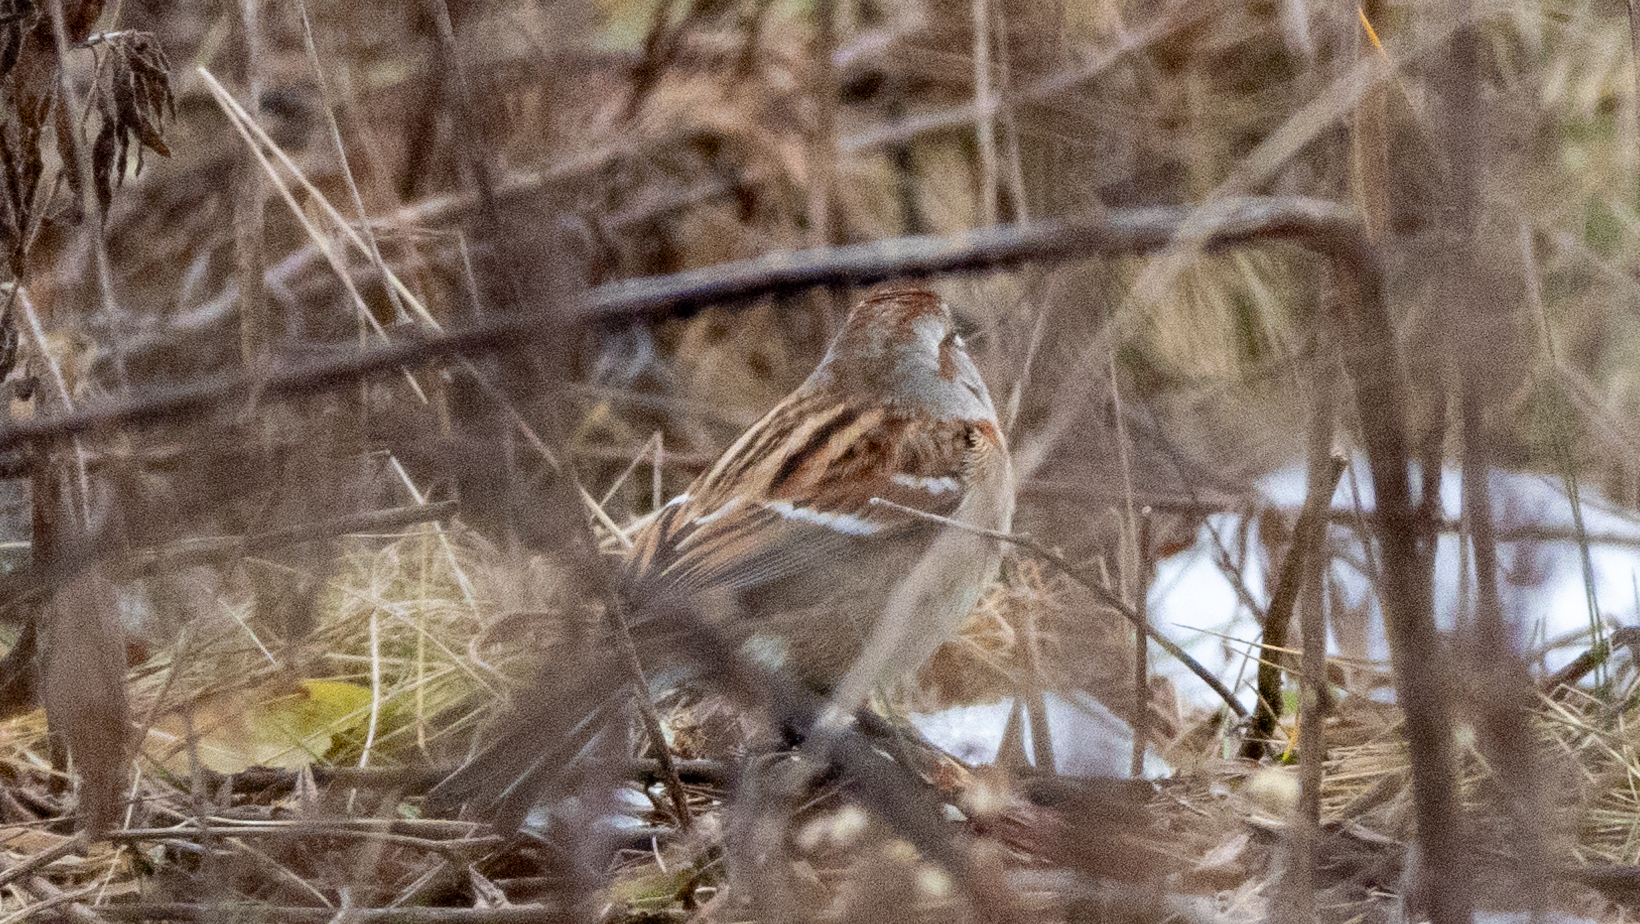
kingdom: Animalia
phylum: Chordata
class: Aves
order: Passeriformes
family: Passerellidae
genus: Spizelloides
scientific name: Spizelloides arborea
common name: American tree sparrow
